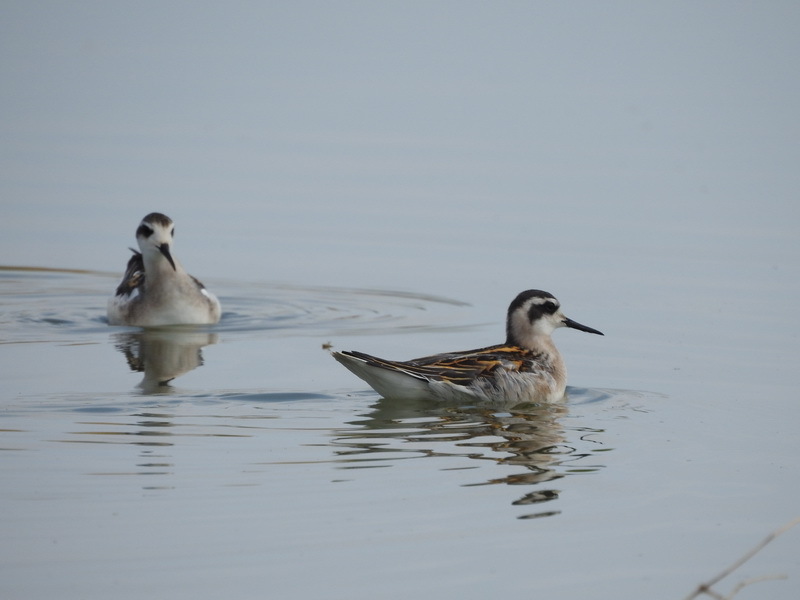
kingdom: Animalia
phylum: Chordata
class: Aves
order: Charadriiformes
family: Scolopacidae
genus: Phalaropus
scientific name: Phalaropus lobatus
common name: Red-necked phalarope
